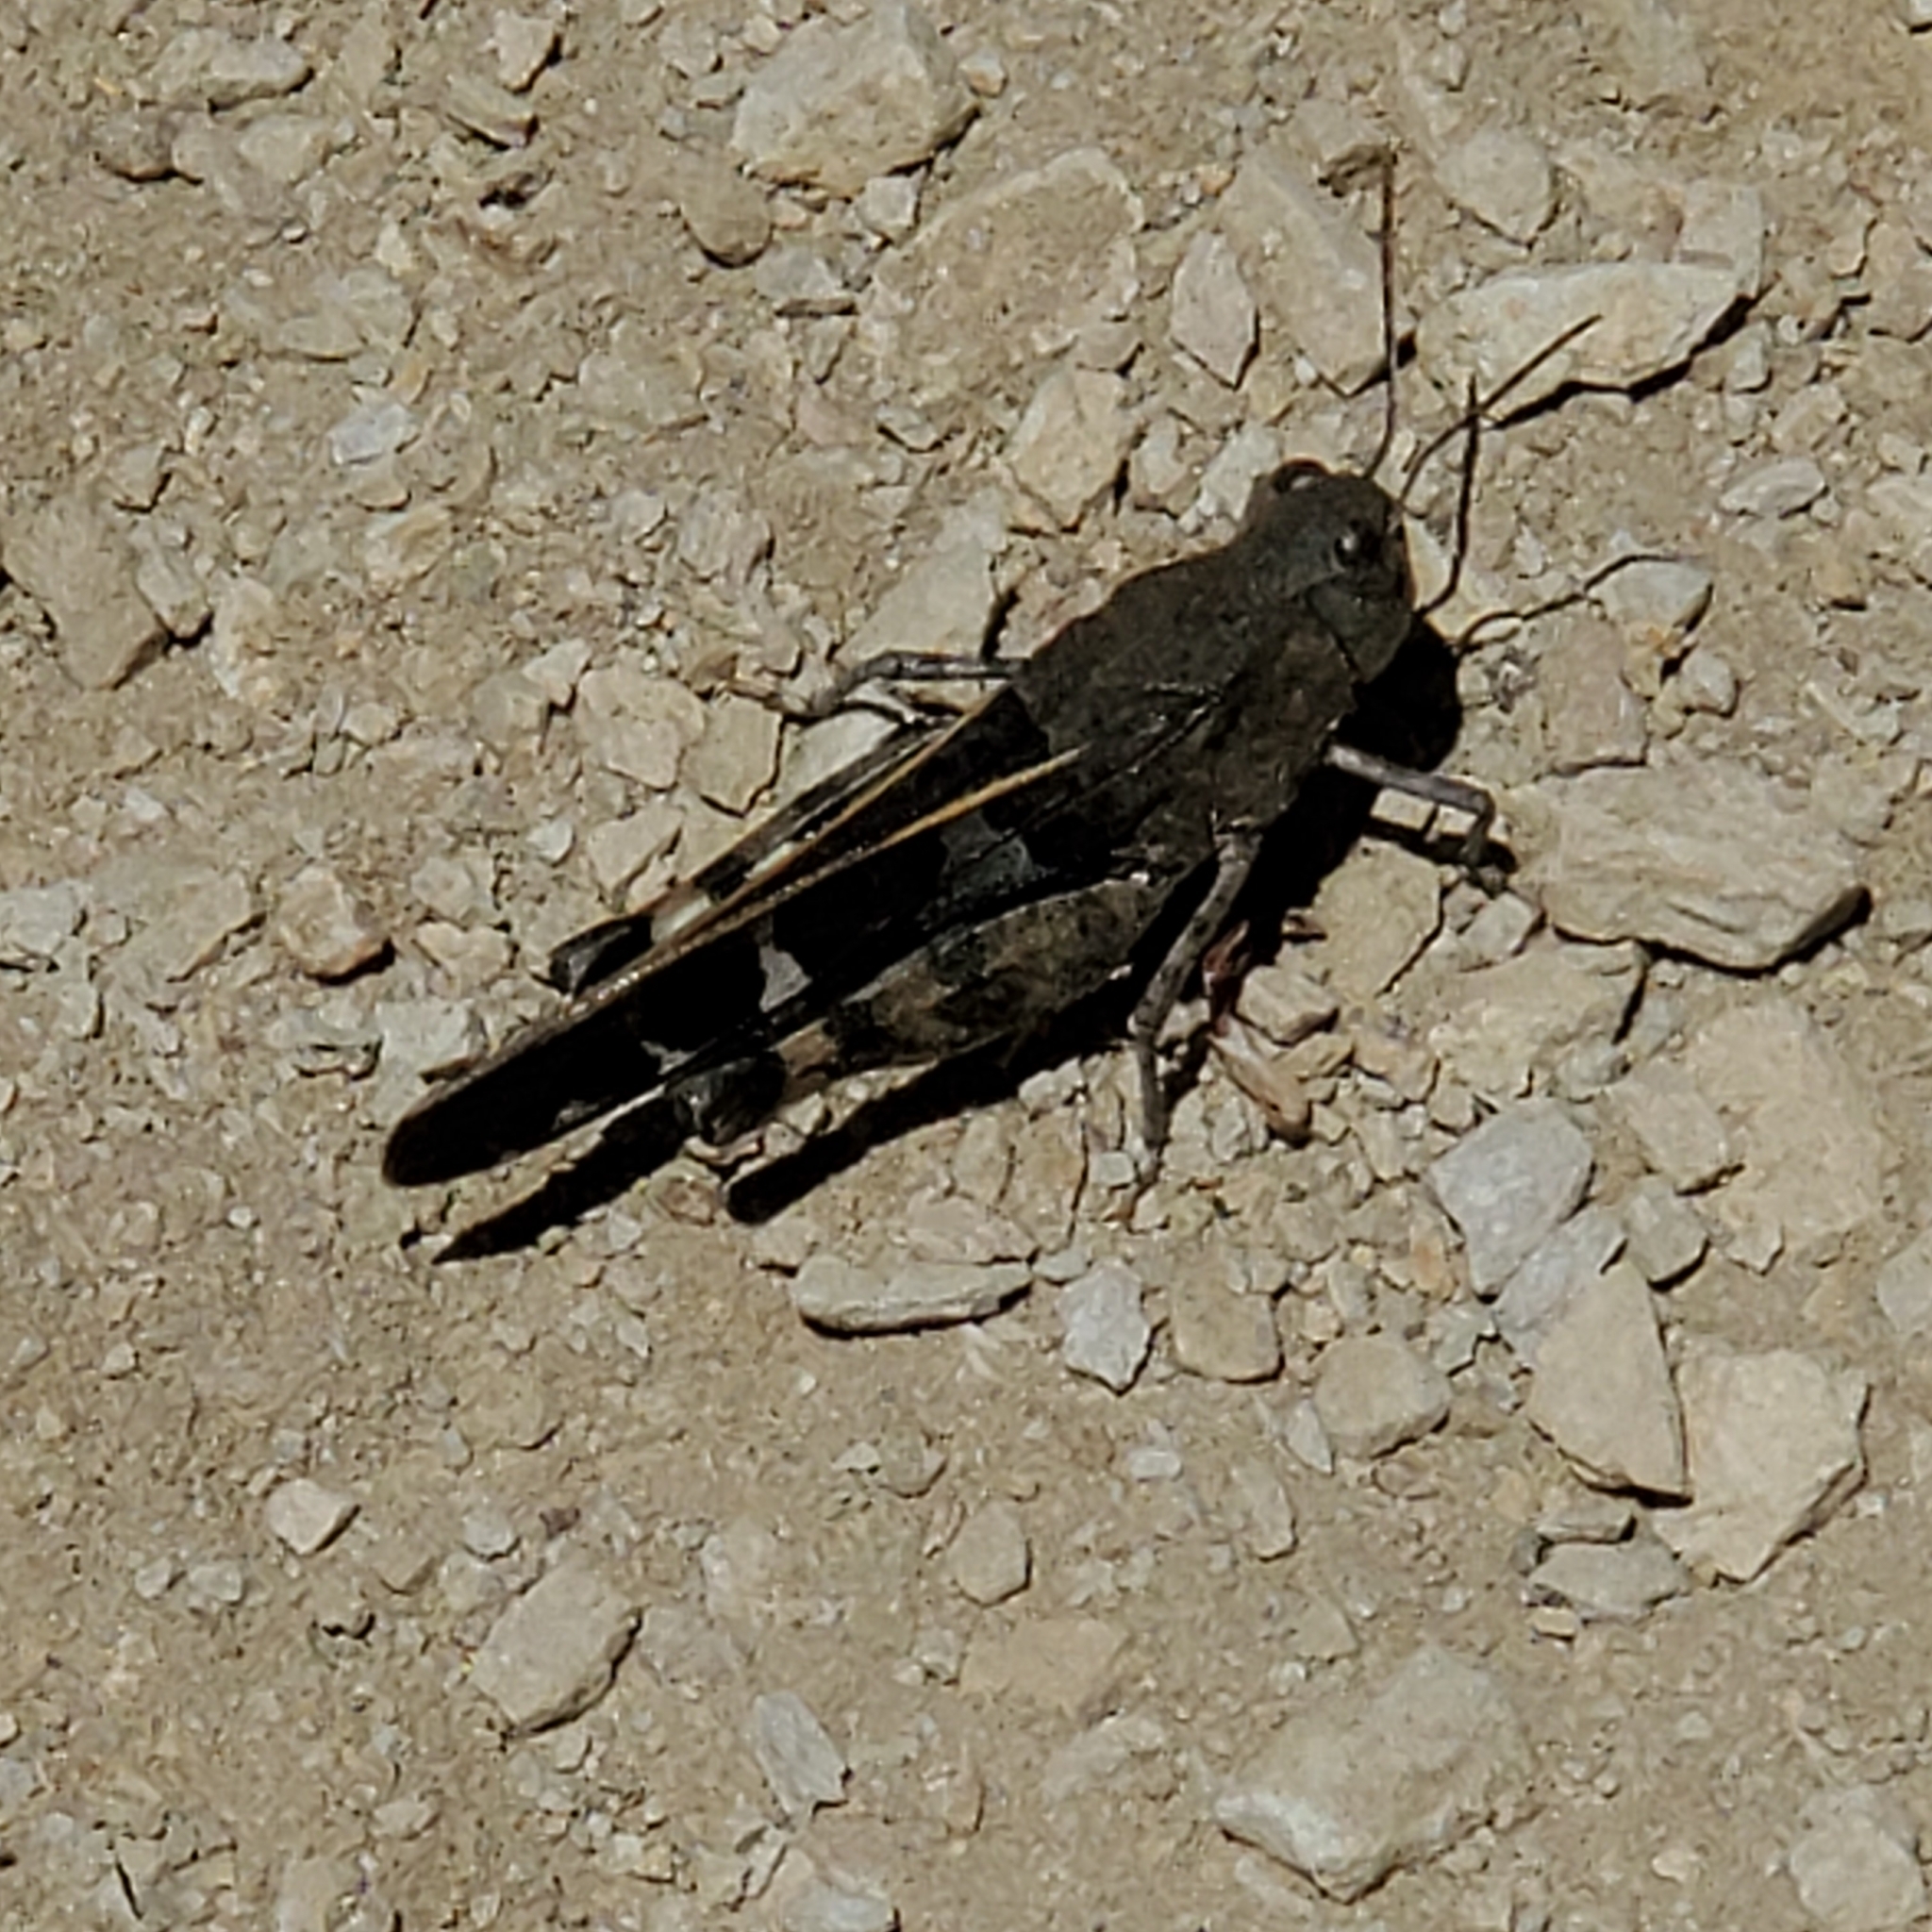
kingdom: Animalia
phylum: Arthropoda
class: Insecta
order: Orthoptera
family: Acrididae
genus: Leprus
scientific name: Leprus intermedius
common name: Saussure's blue-winged grasshopper
